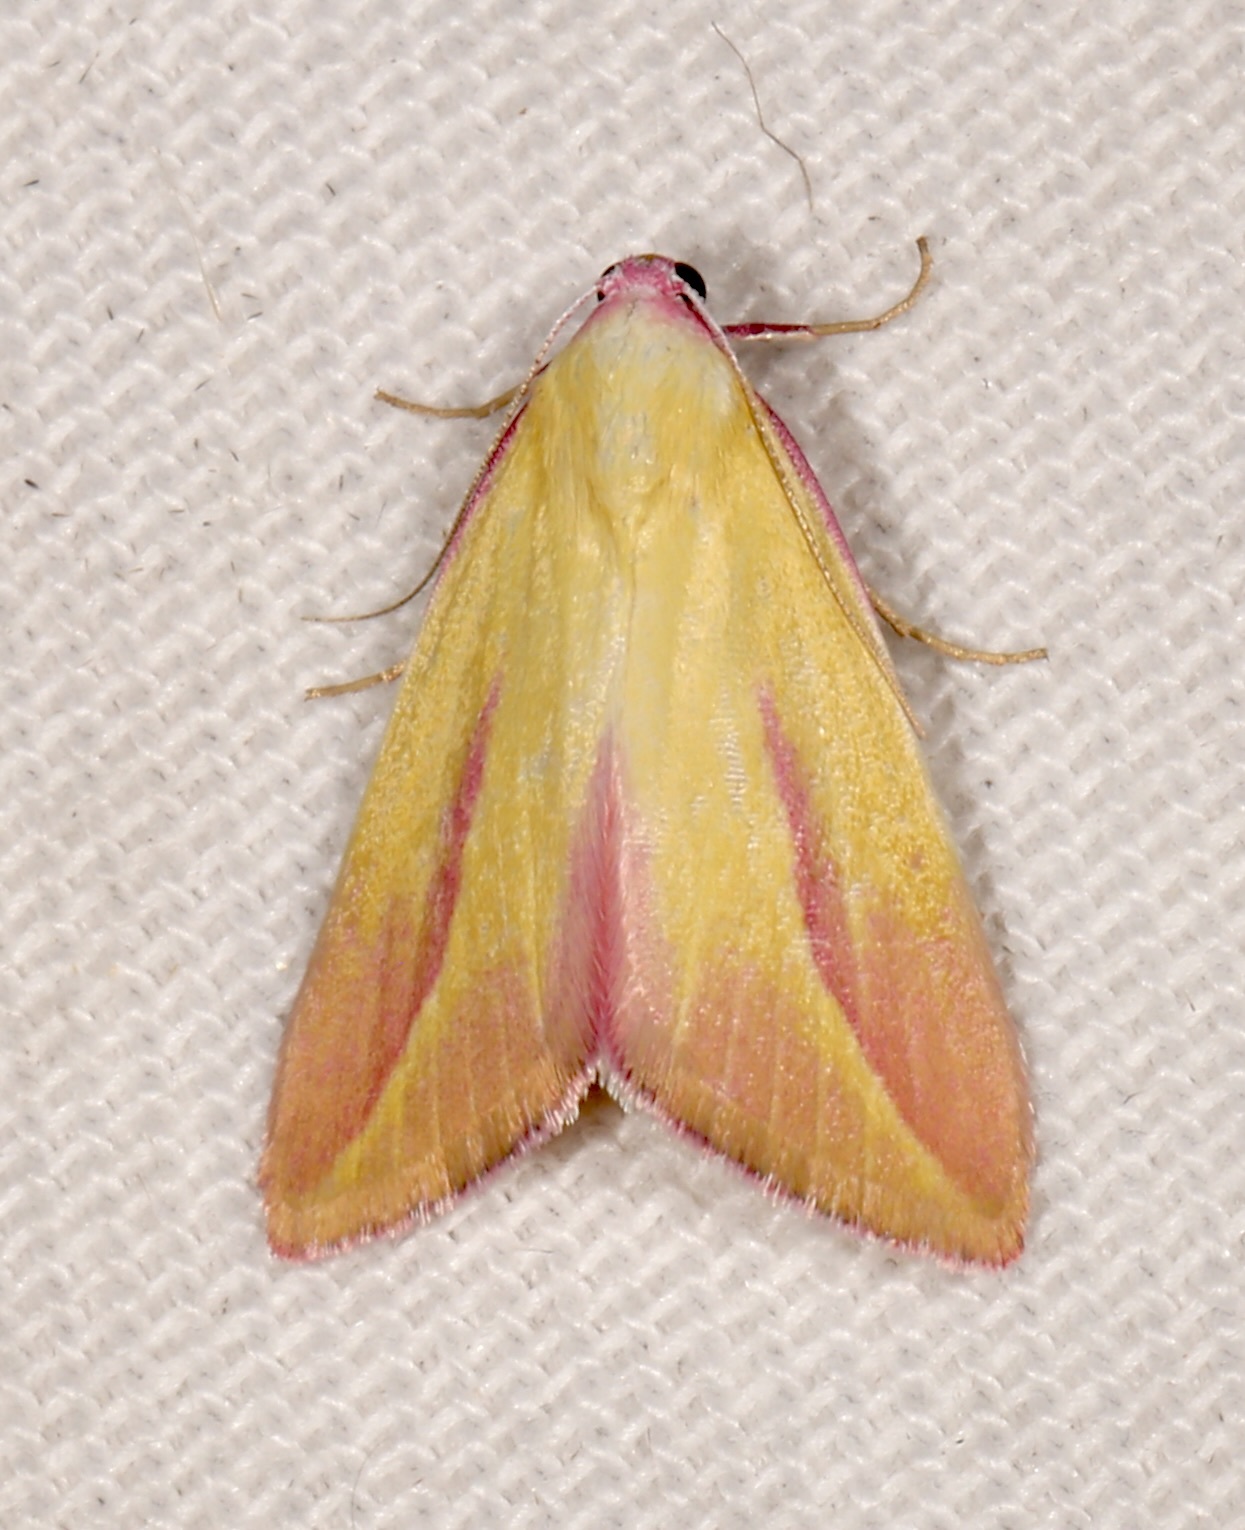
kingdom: Animalia
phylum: Arthropoda
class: Insecta
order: Lepidoptera
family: Erebidae
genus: Phytometra
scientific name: Phytometra obliqualis
